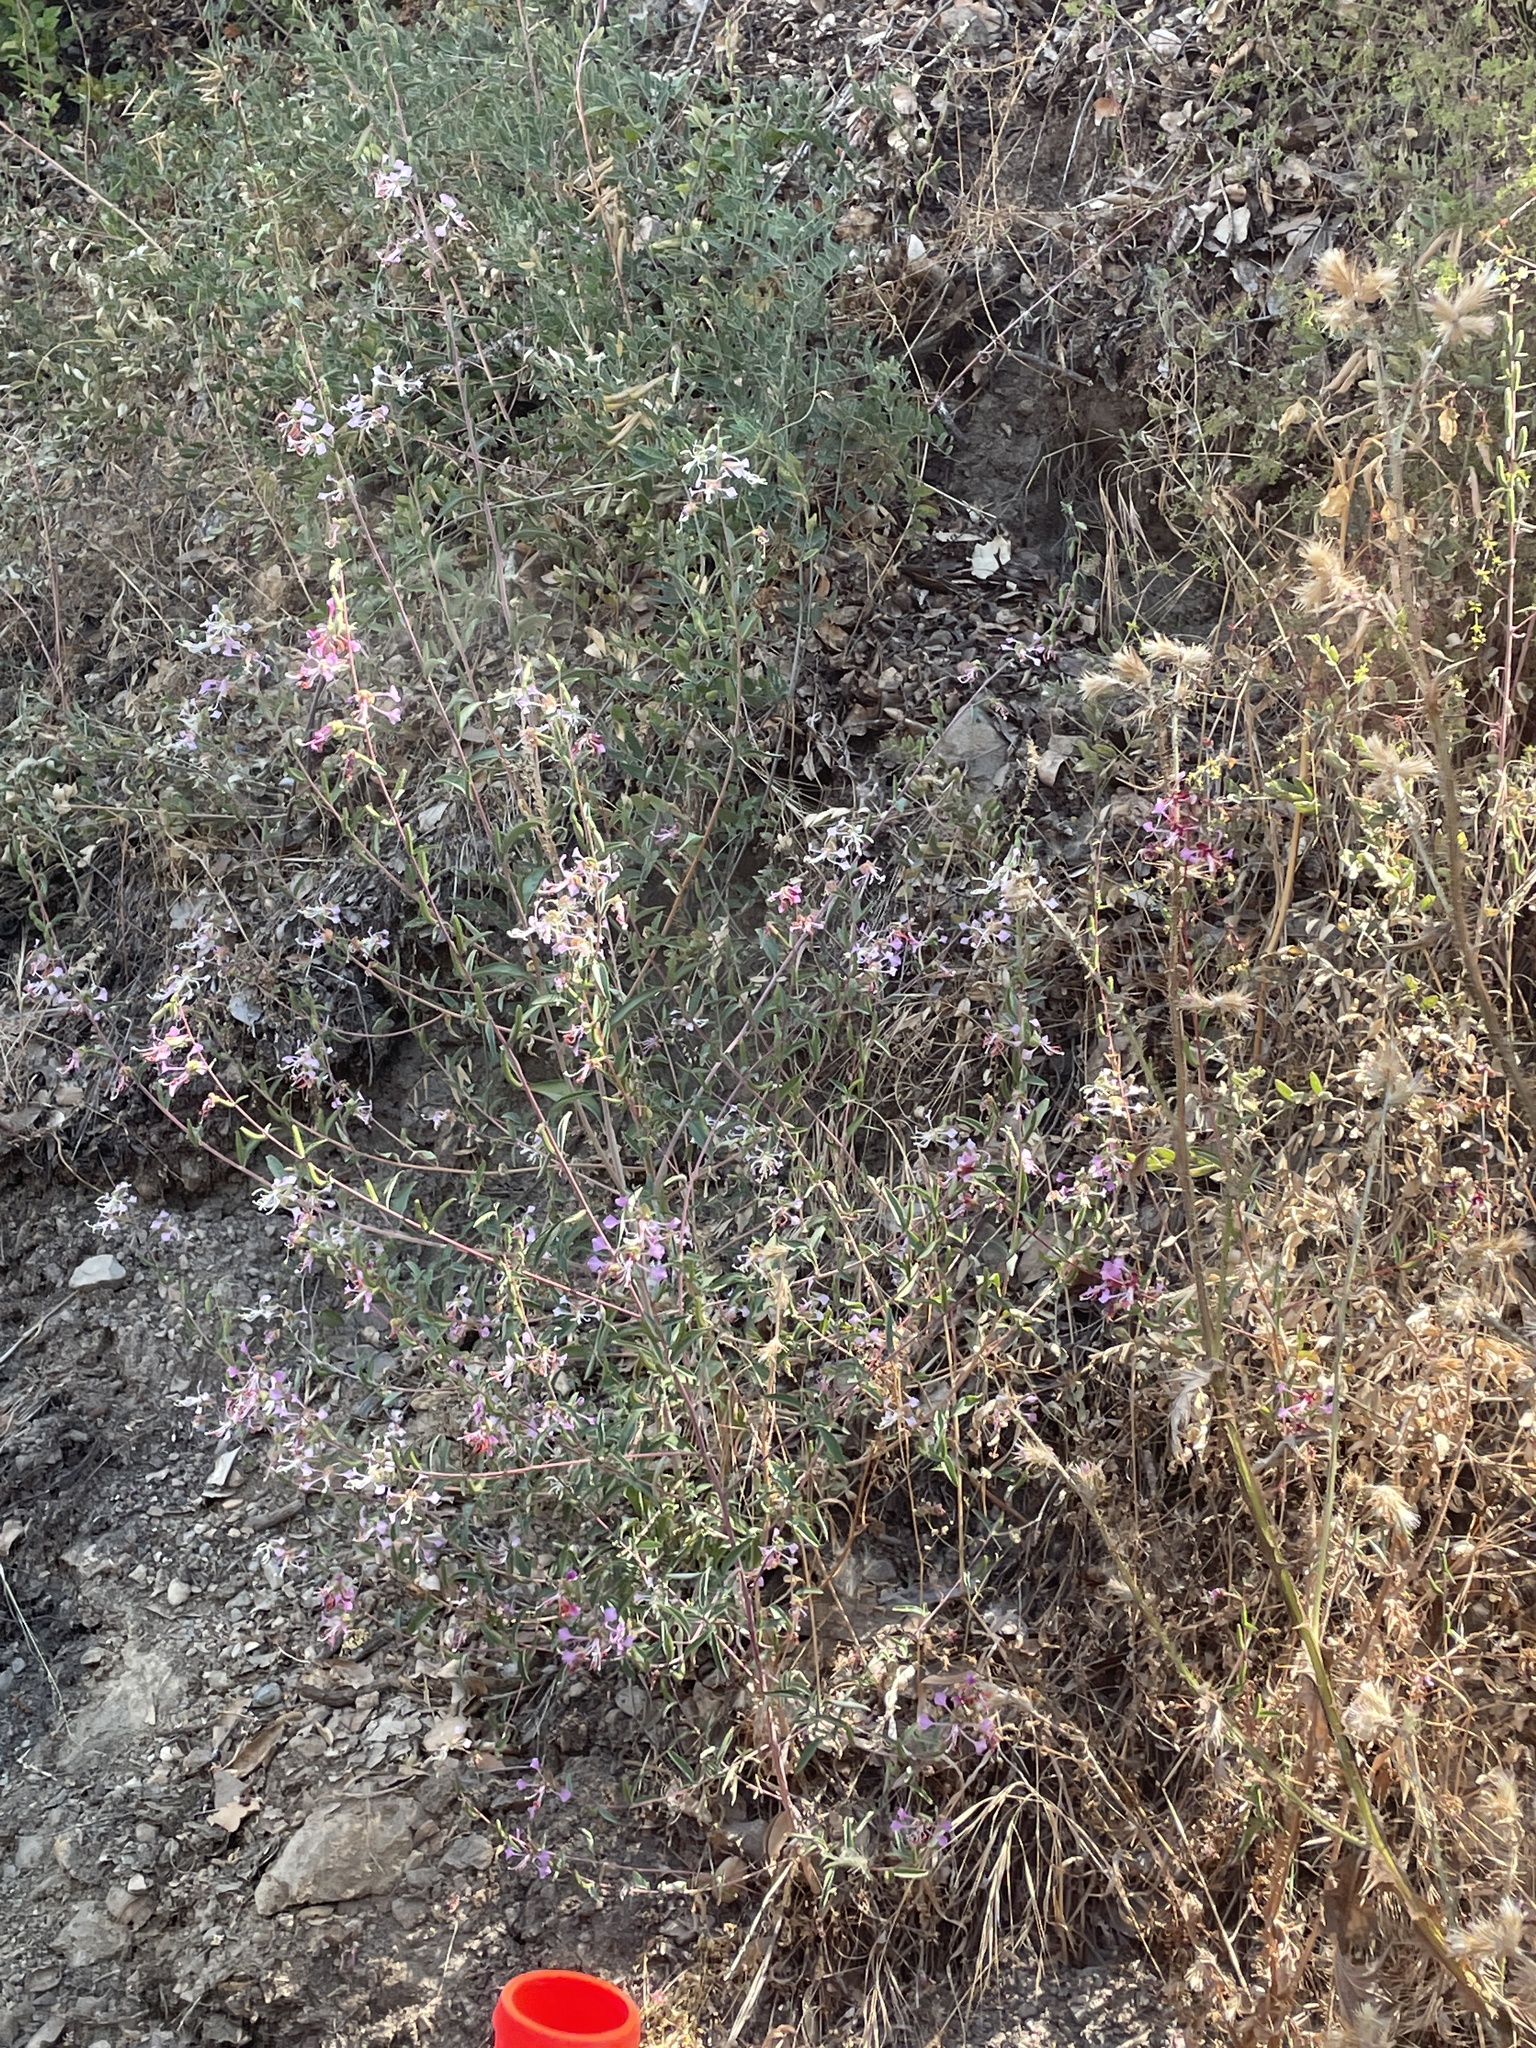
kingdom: Plantae
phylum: Tracheophyta
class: Magnoliopsida
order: Myrtales
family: Onagraceae
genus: Clarkia
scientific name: Clarkia unguiculata
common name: Clarkia
